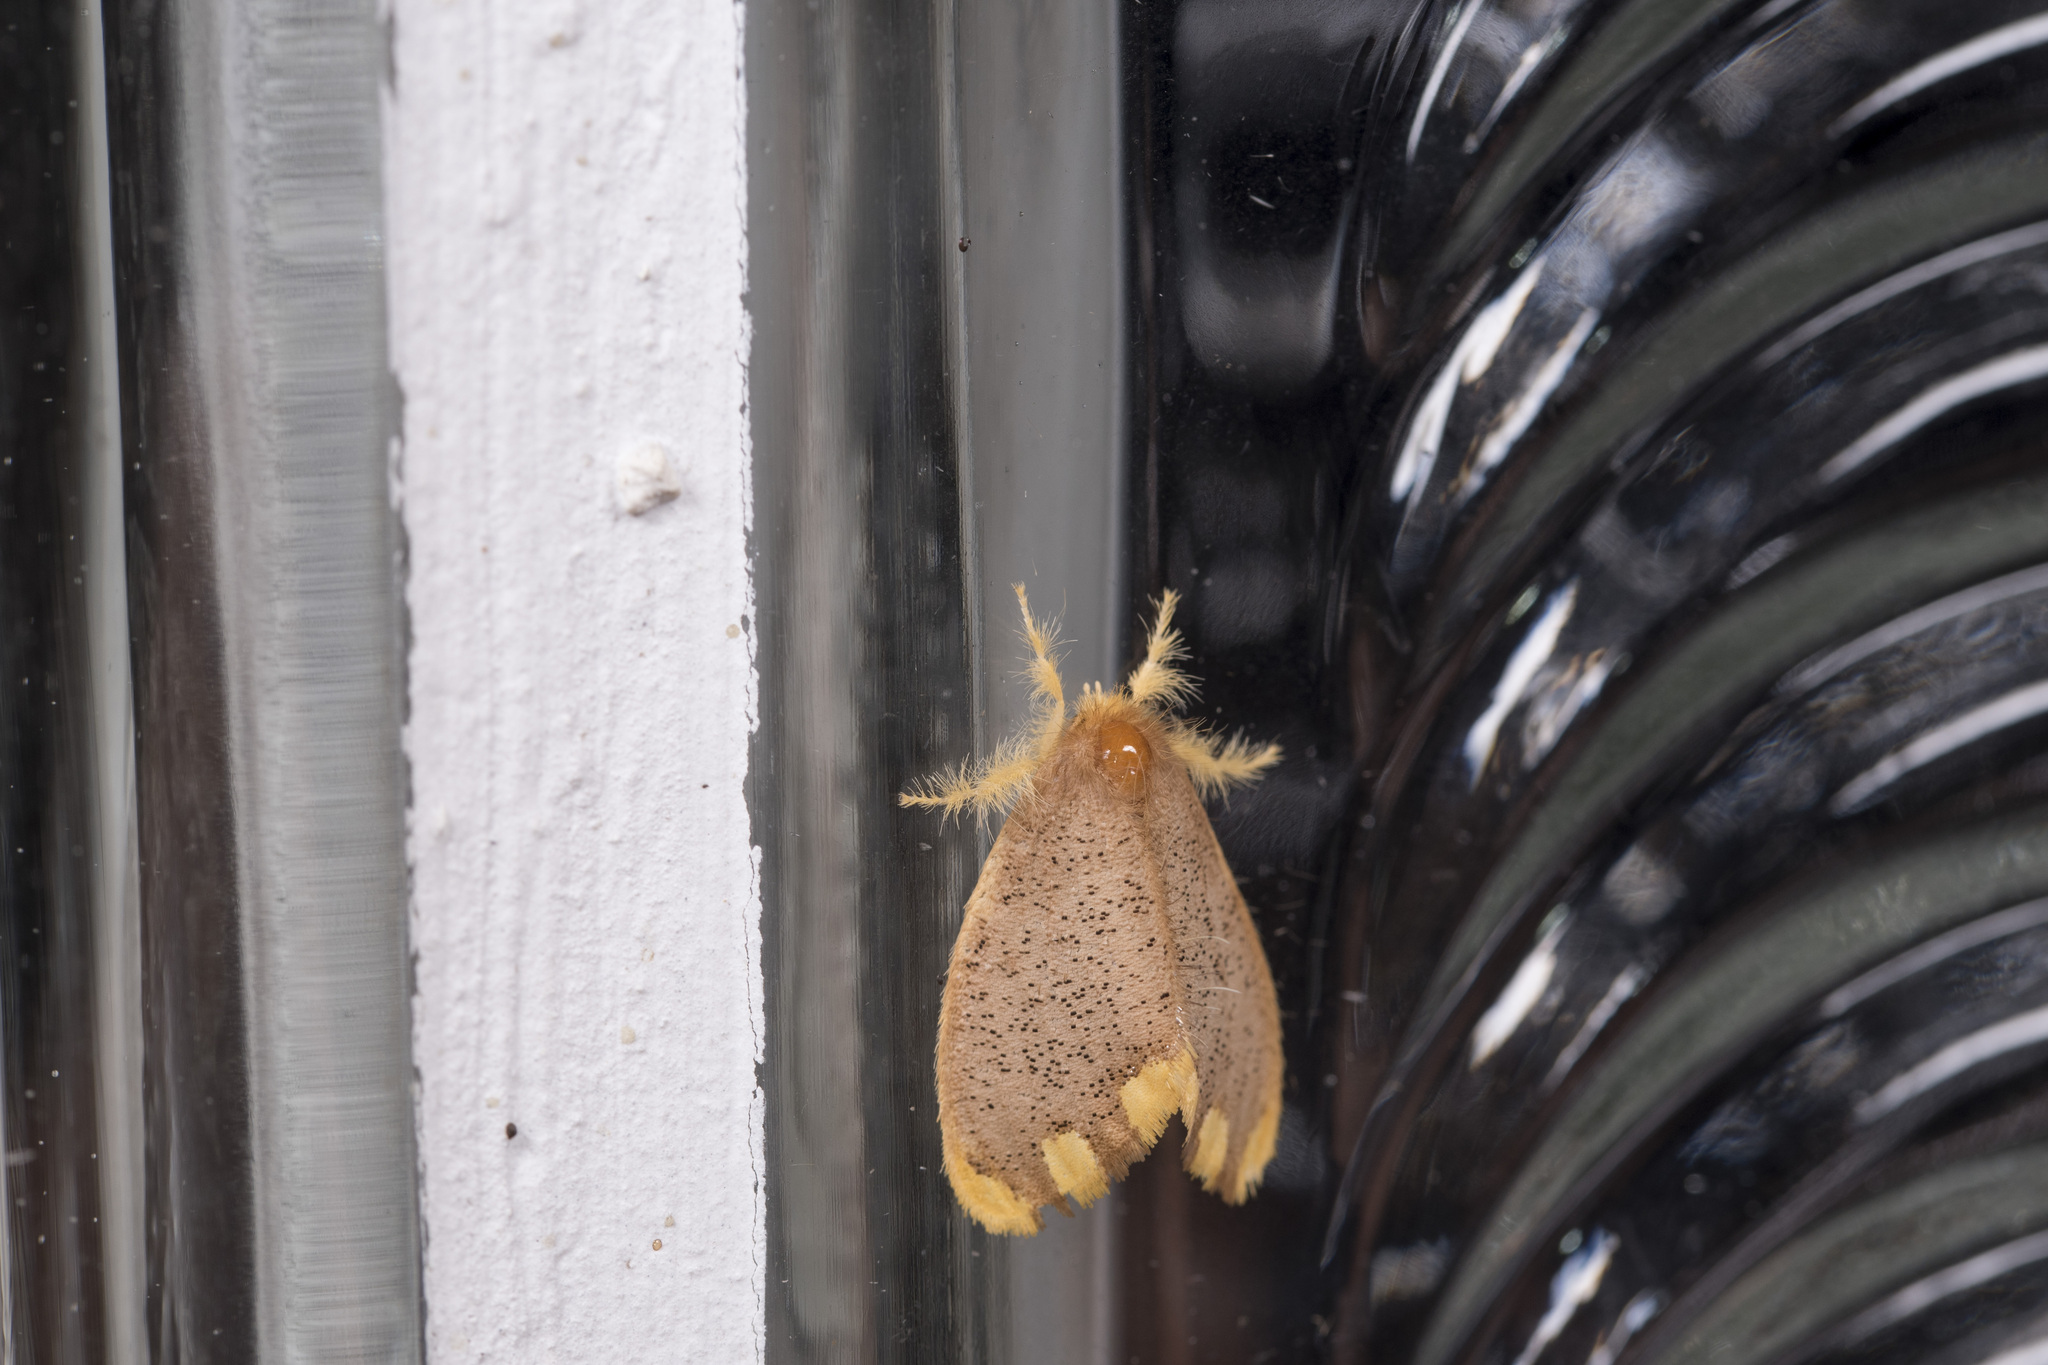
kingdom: Animalia
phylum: Arthropoda
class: Insecta
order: Lepidoptera
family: Erebidae
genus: Somena
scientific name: Somena scintillans
